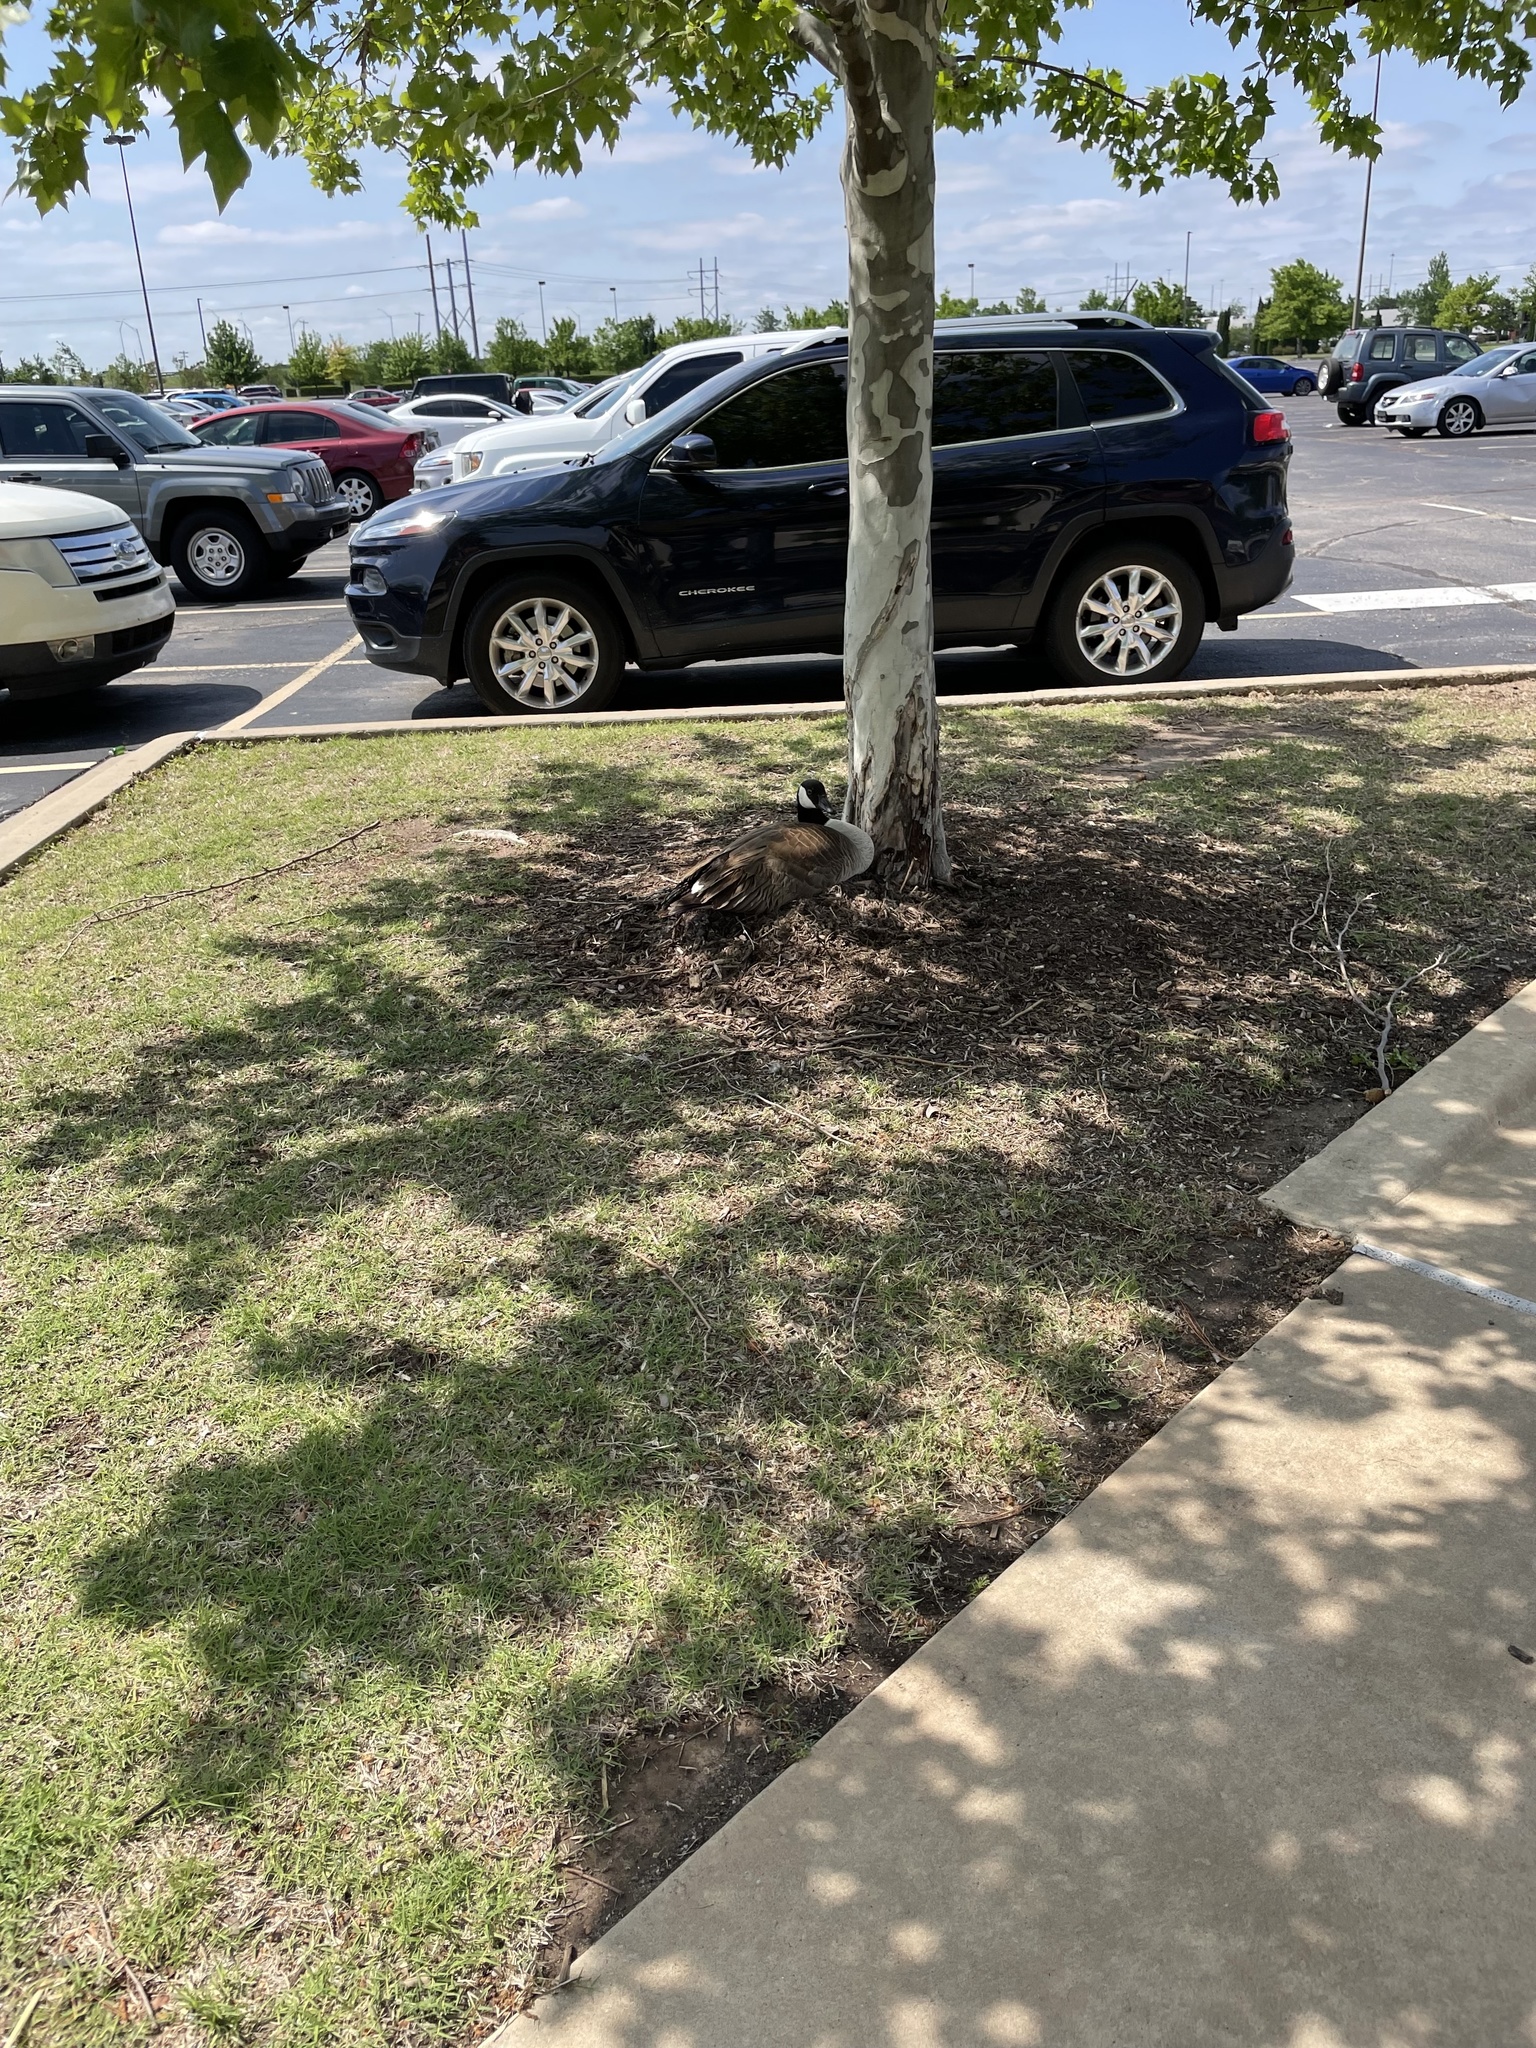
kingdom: Animalia
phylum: Chordata
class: Aves
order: Anseriformes
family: Anatidae
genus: Branta
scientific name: Branta canadensis
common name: Canada goose
